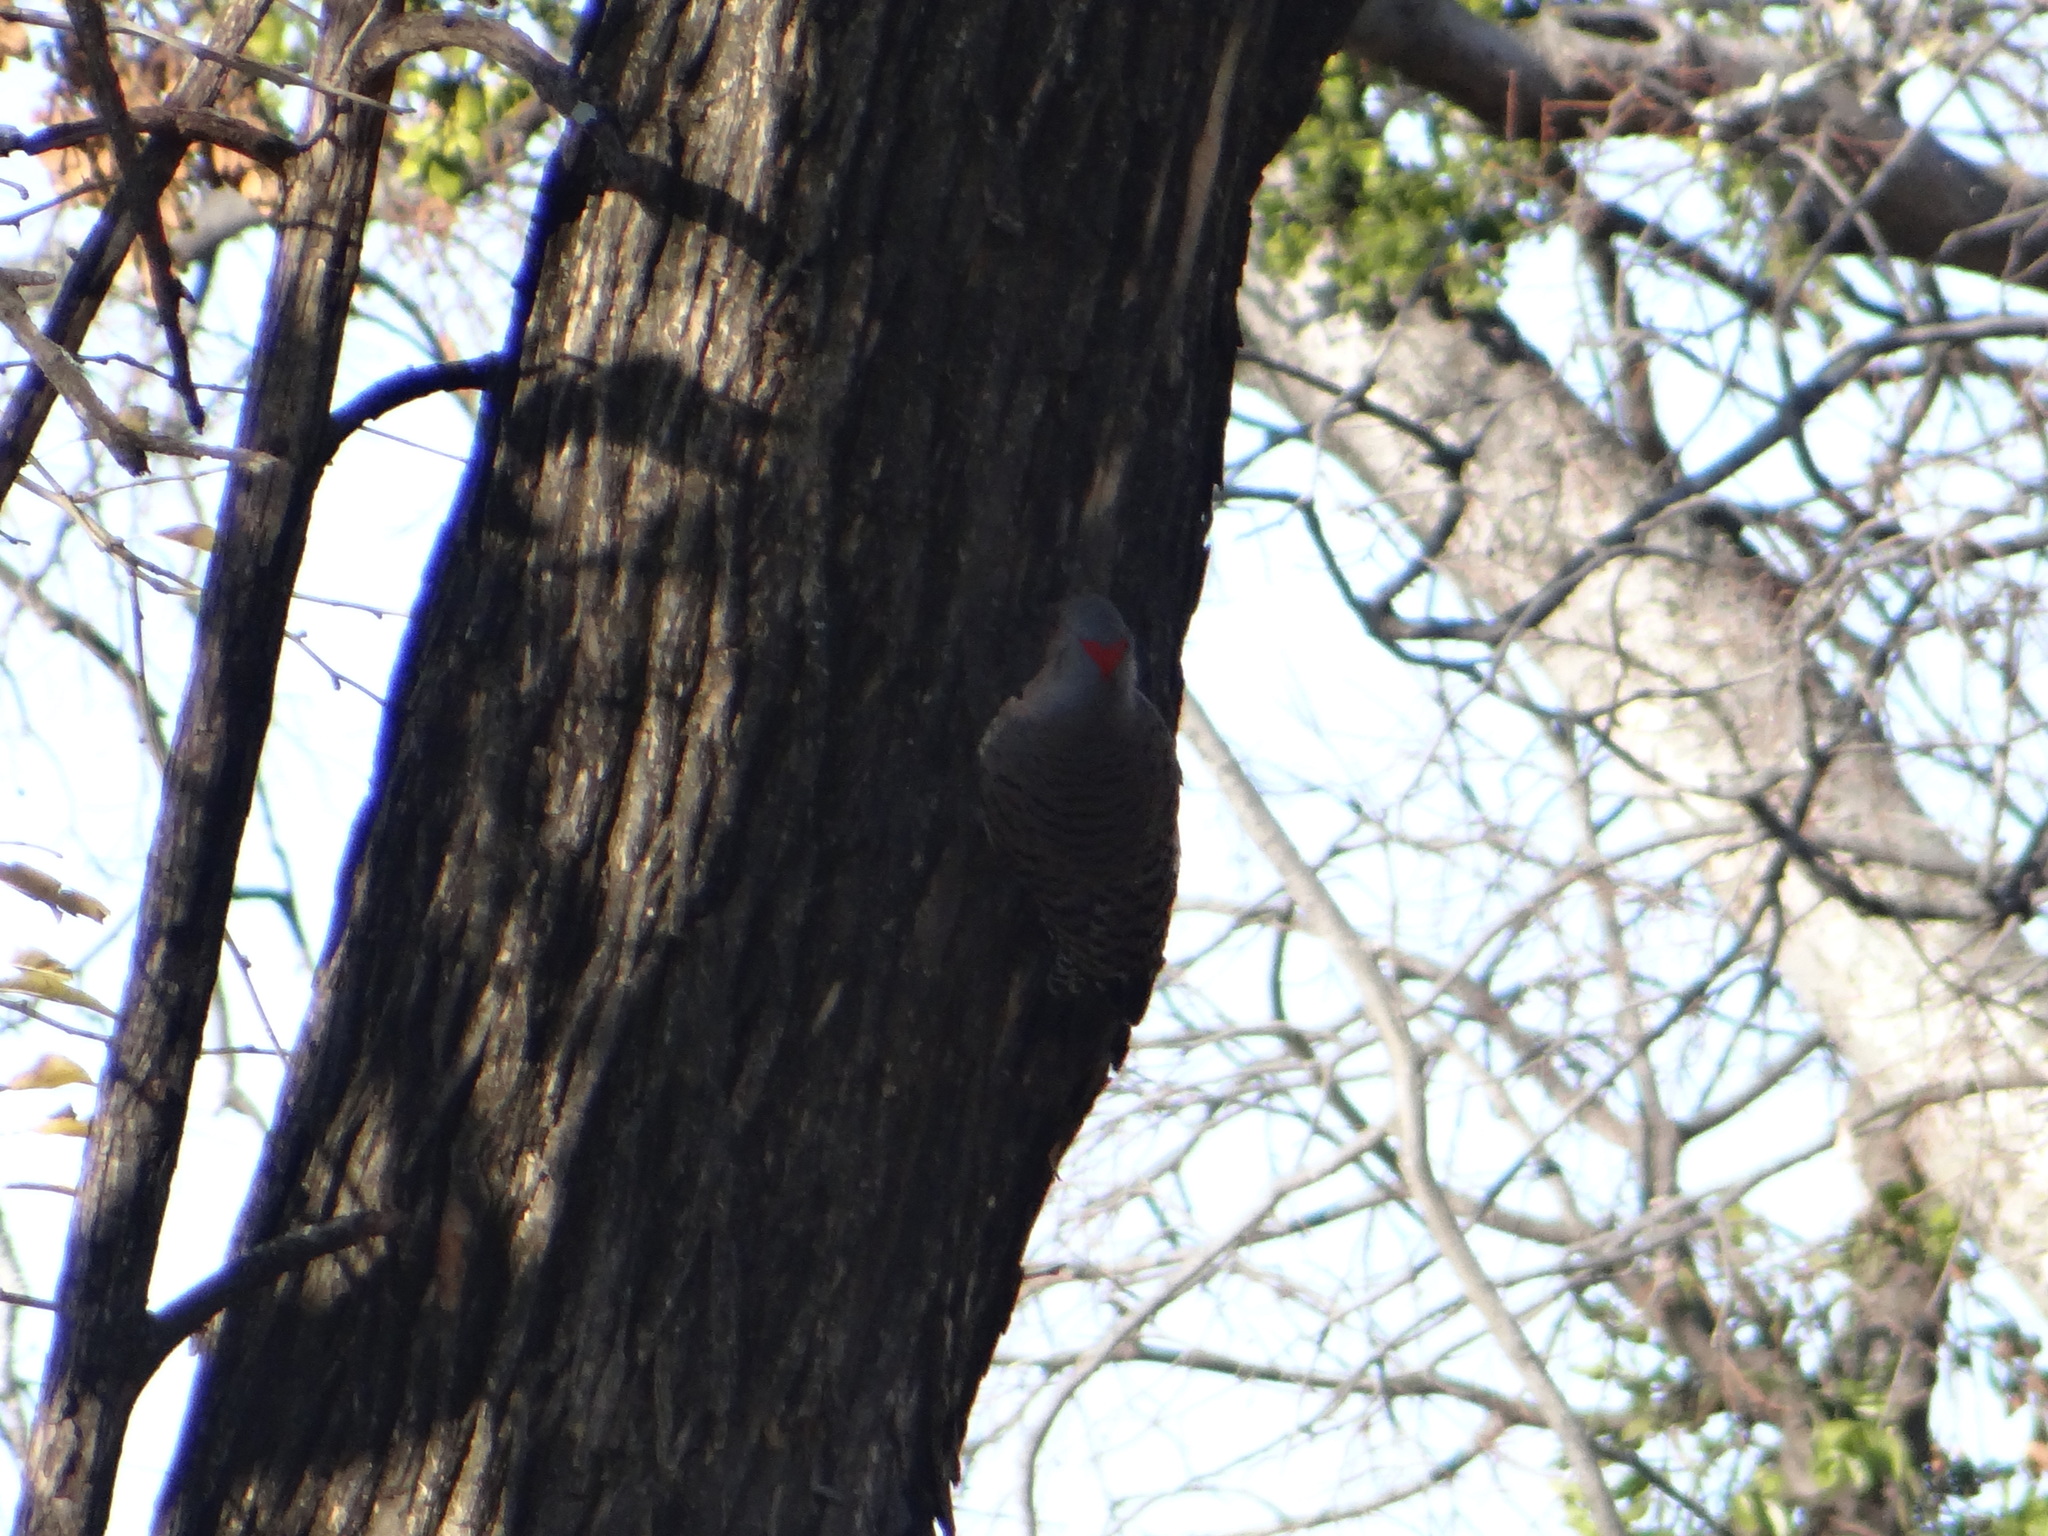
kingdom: Animalia
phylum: Chordata
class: Aves
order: Piciformes
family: Picidae
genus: Colaptes
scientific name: Colaptes auratus
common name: Northern flicker
